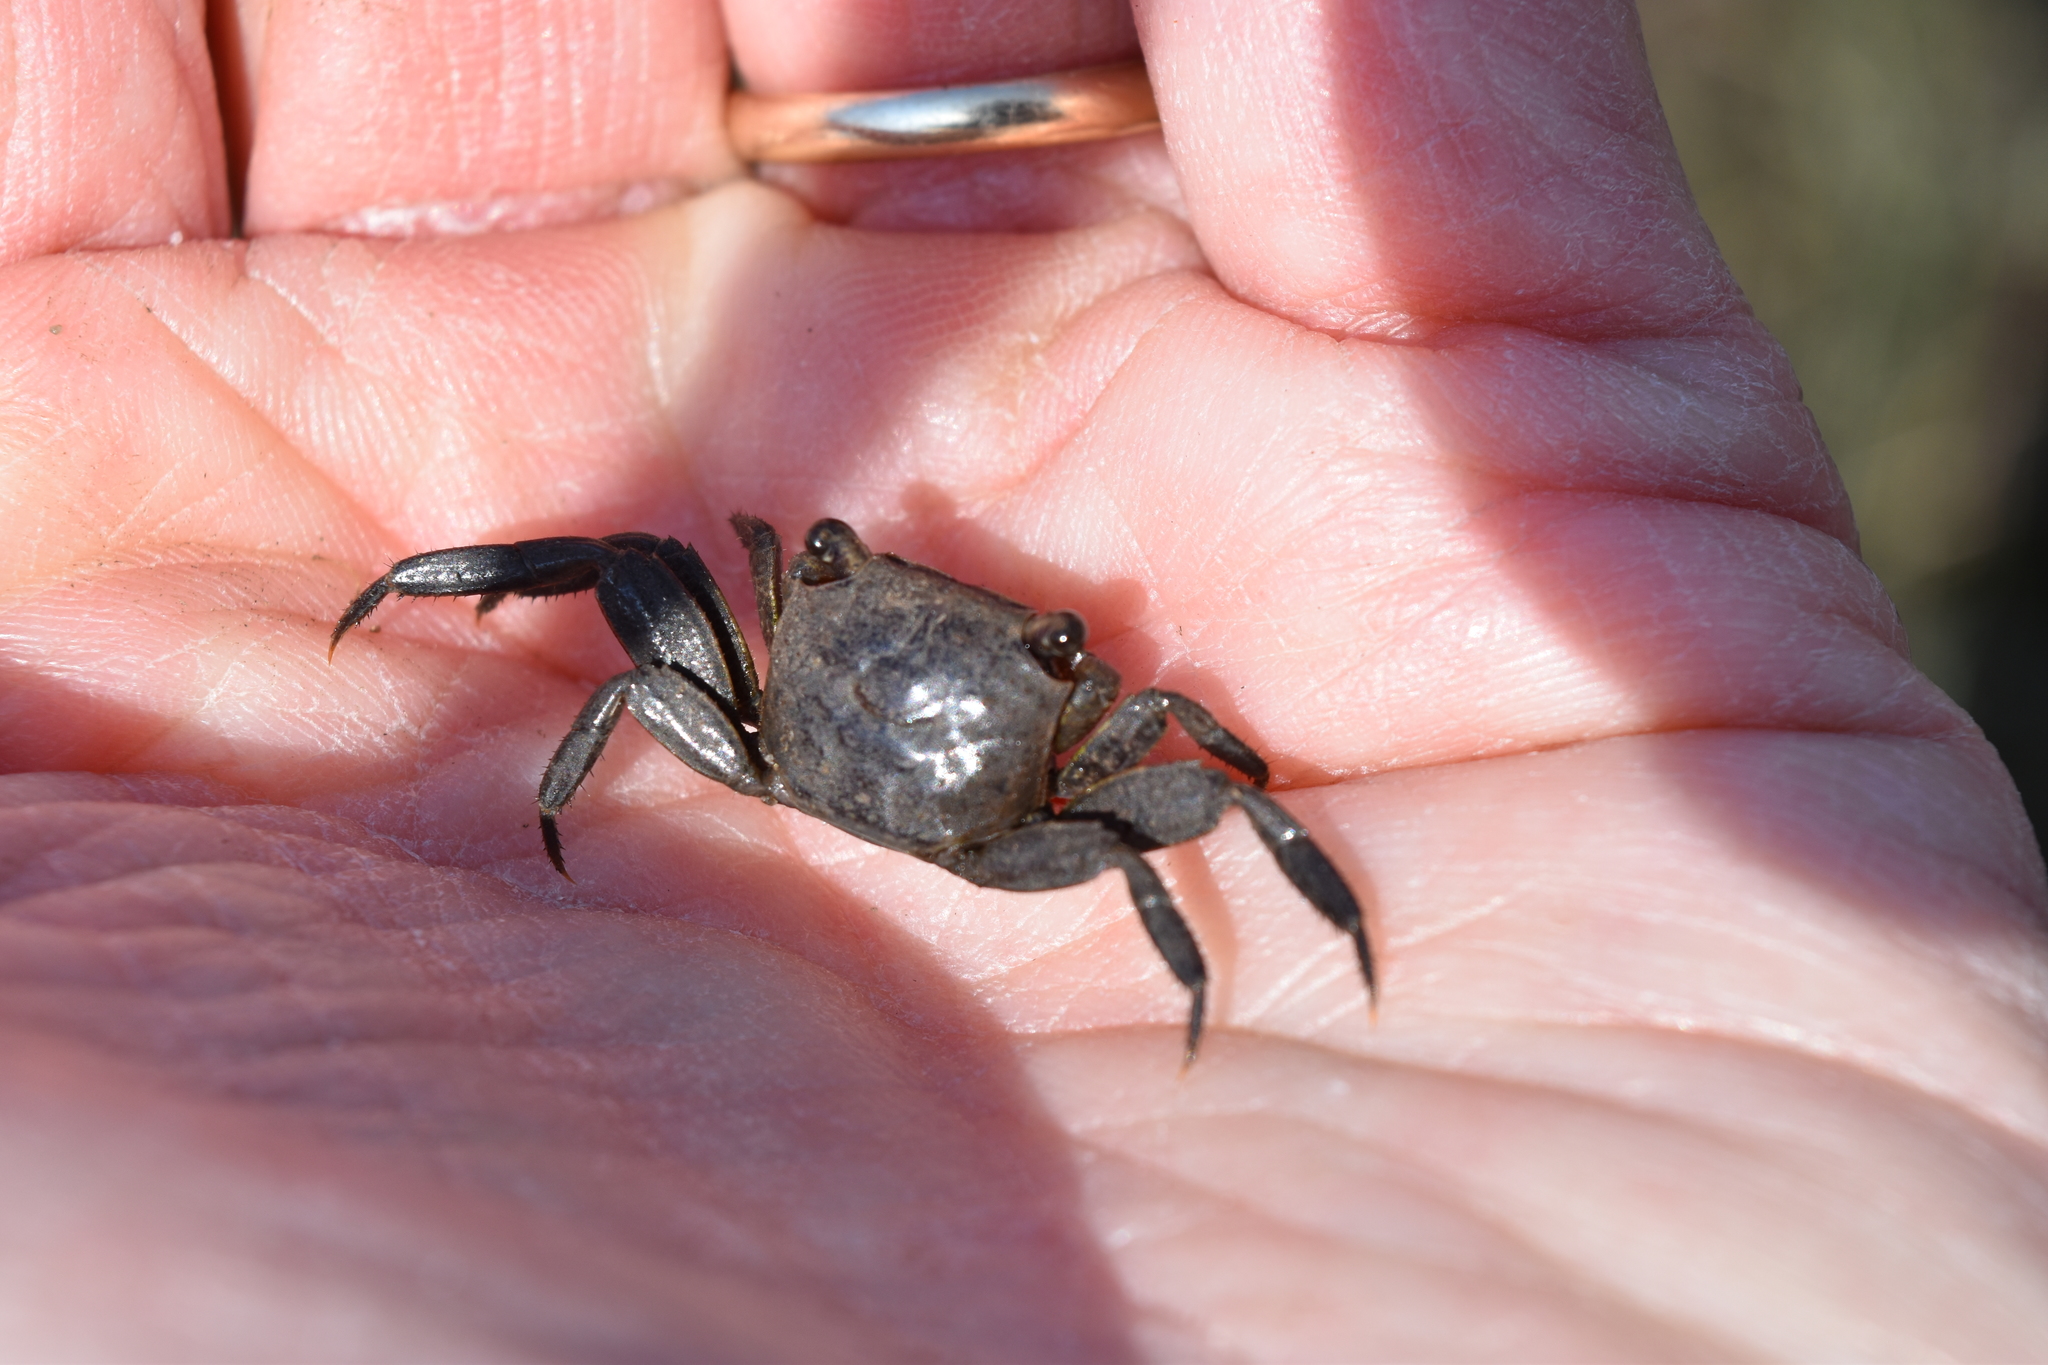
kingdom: Animalia
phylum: Arthropoda
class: Malacostraca
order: Decapoda
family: Sesarmidae
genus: Armases
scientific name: Armases cinereum
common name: Squareback marsh crab
